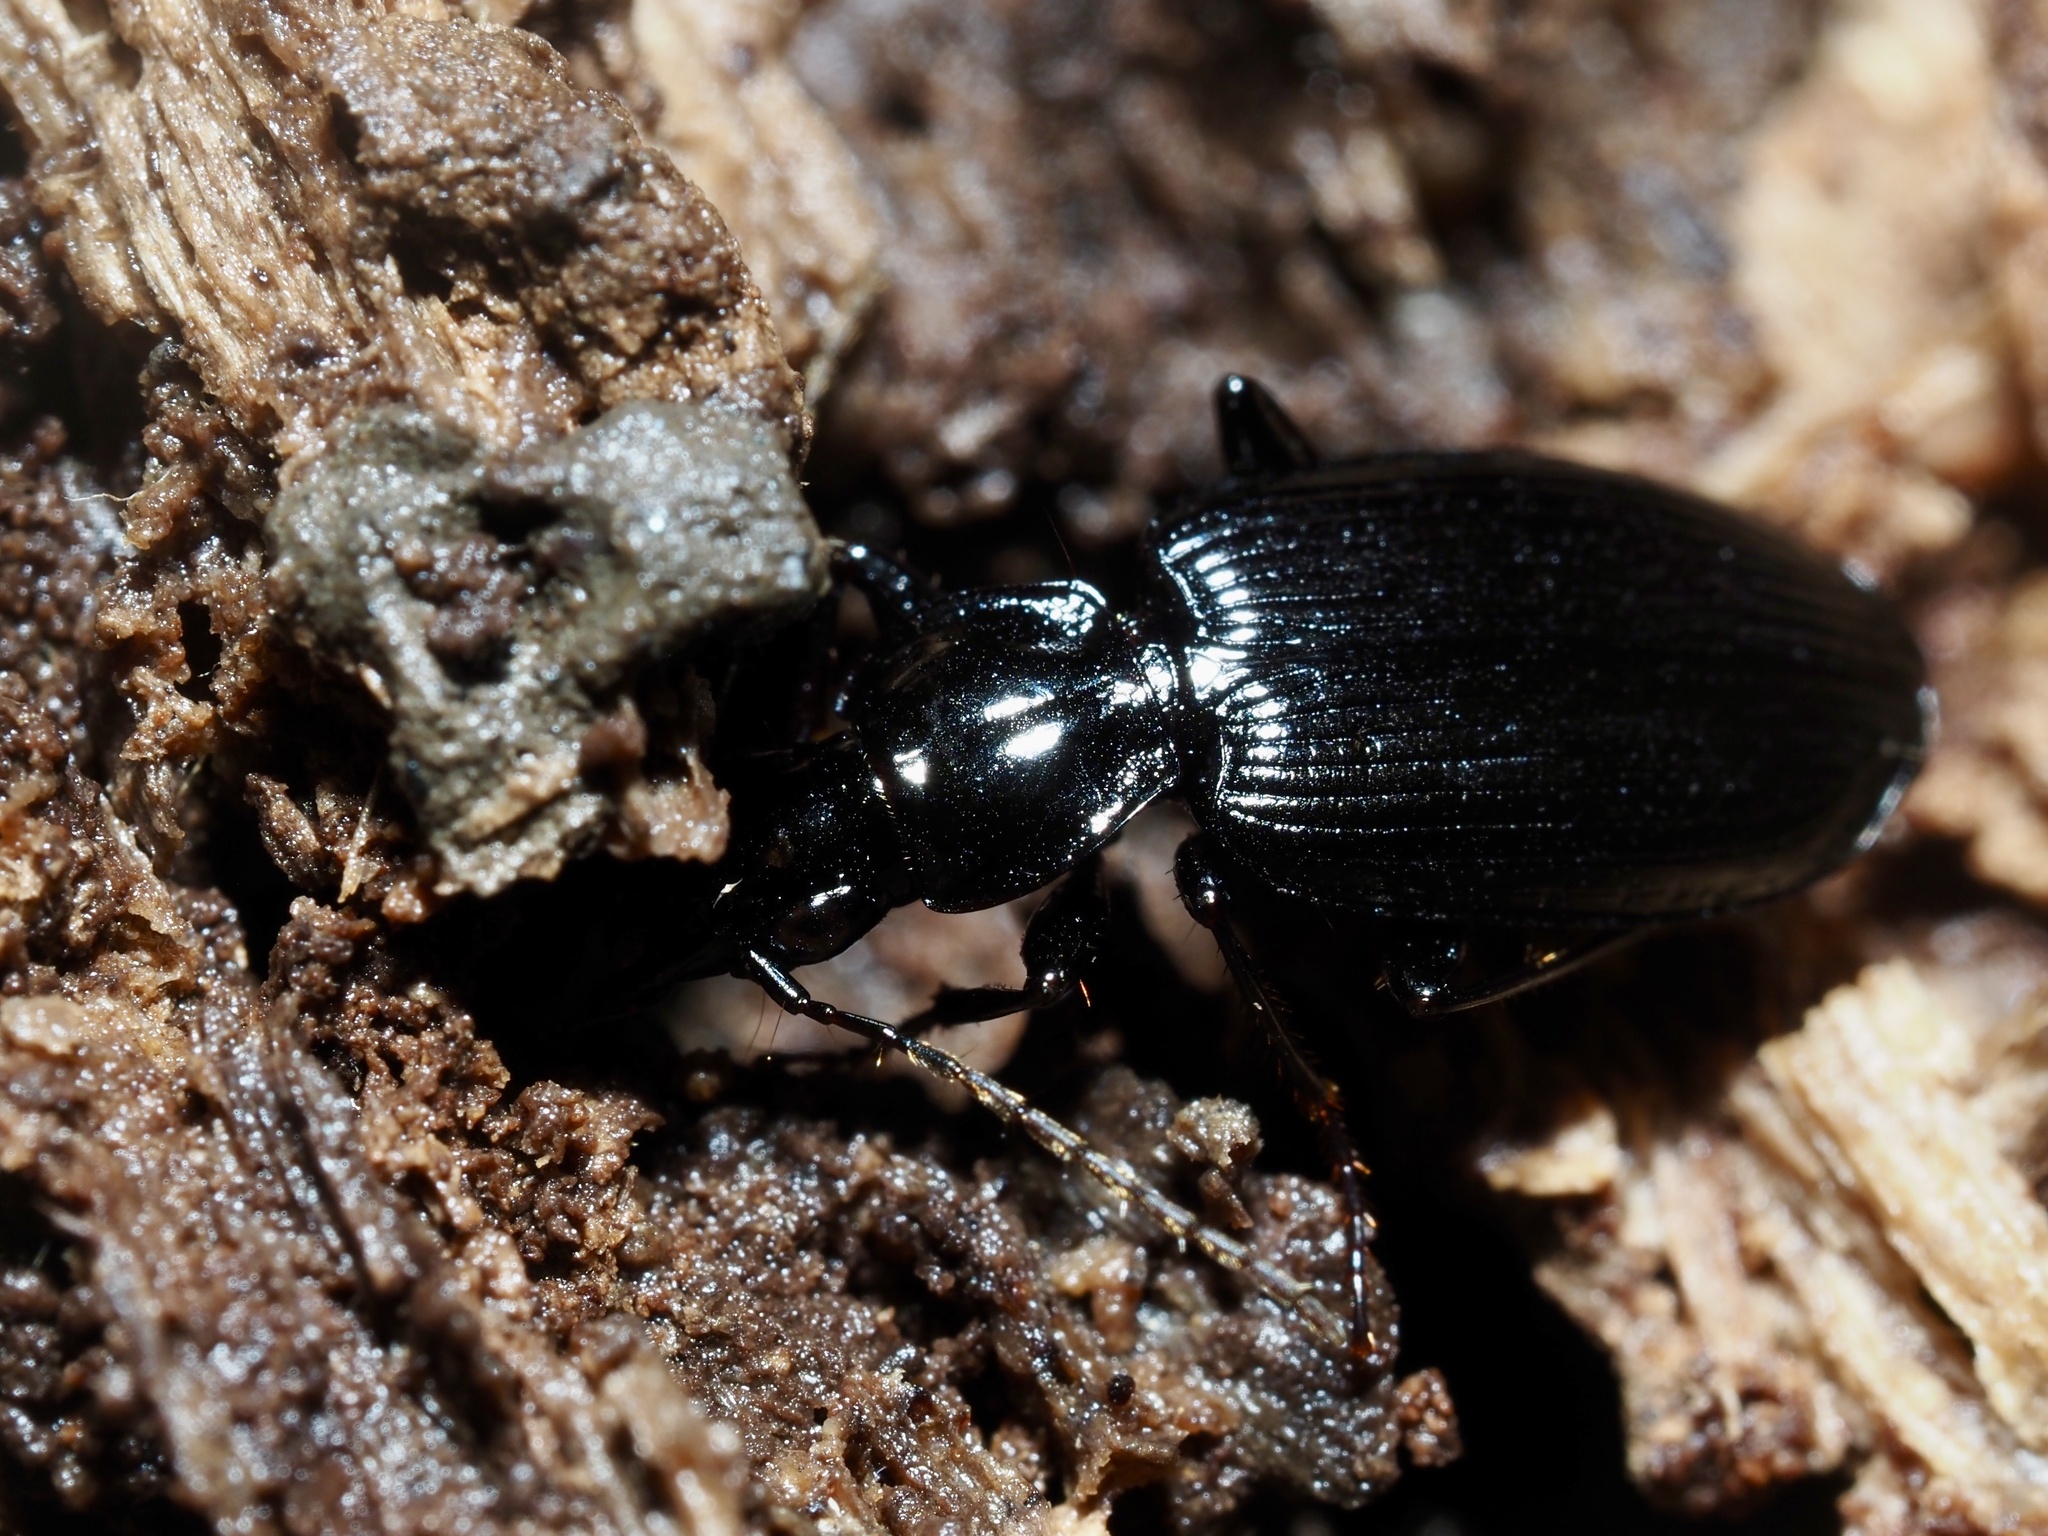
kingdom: Animalia
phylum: Arthropoda
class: Insecta
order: Coleoptera
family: Carabidae
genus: Platynus
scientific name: Platynus decentis
